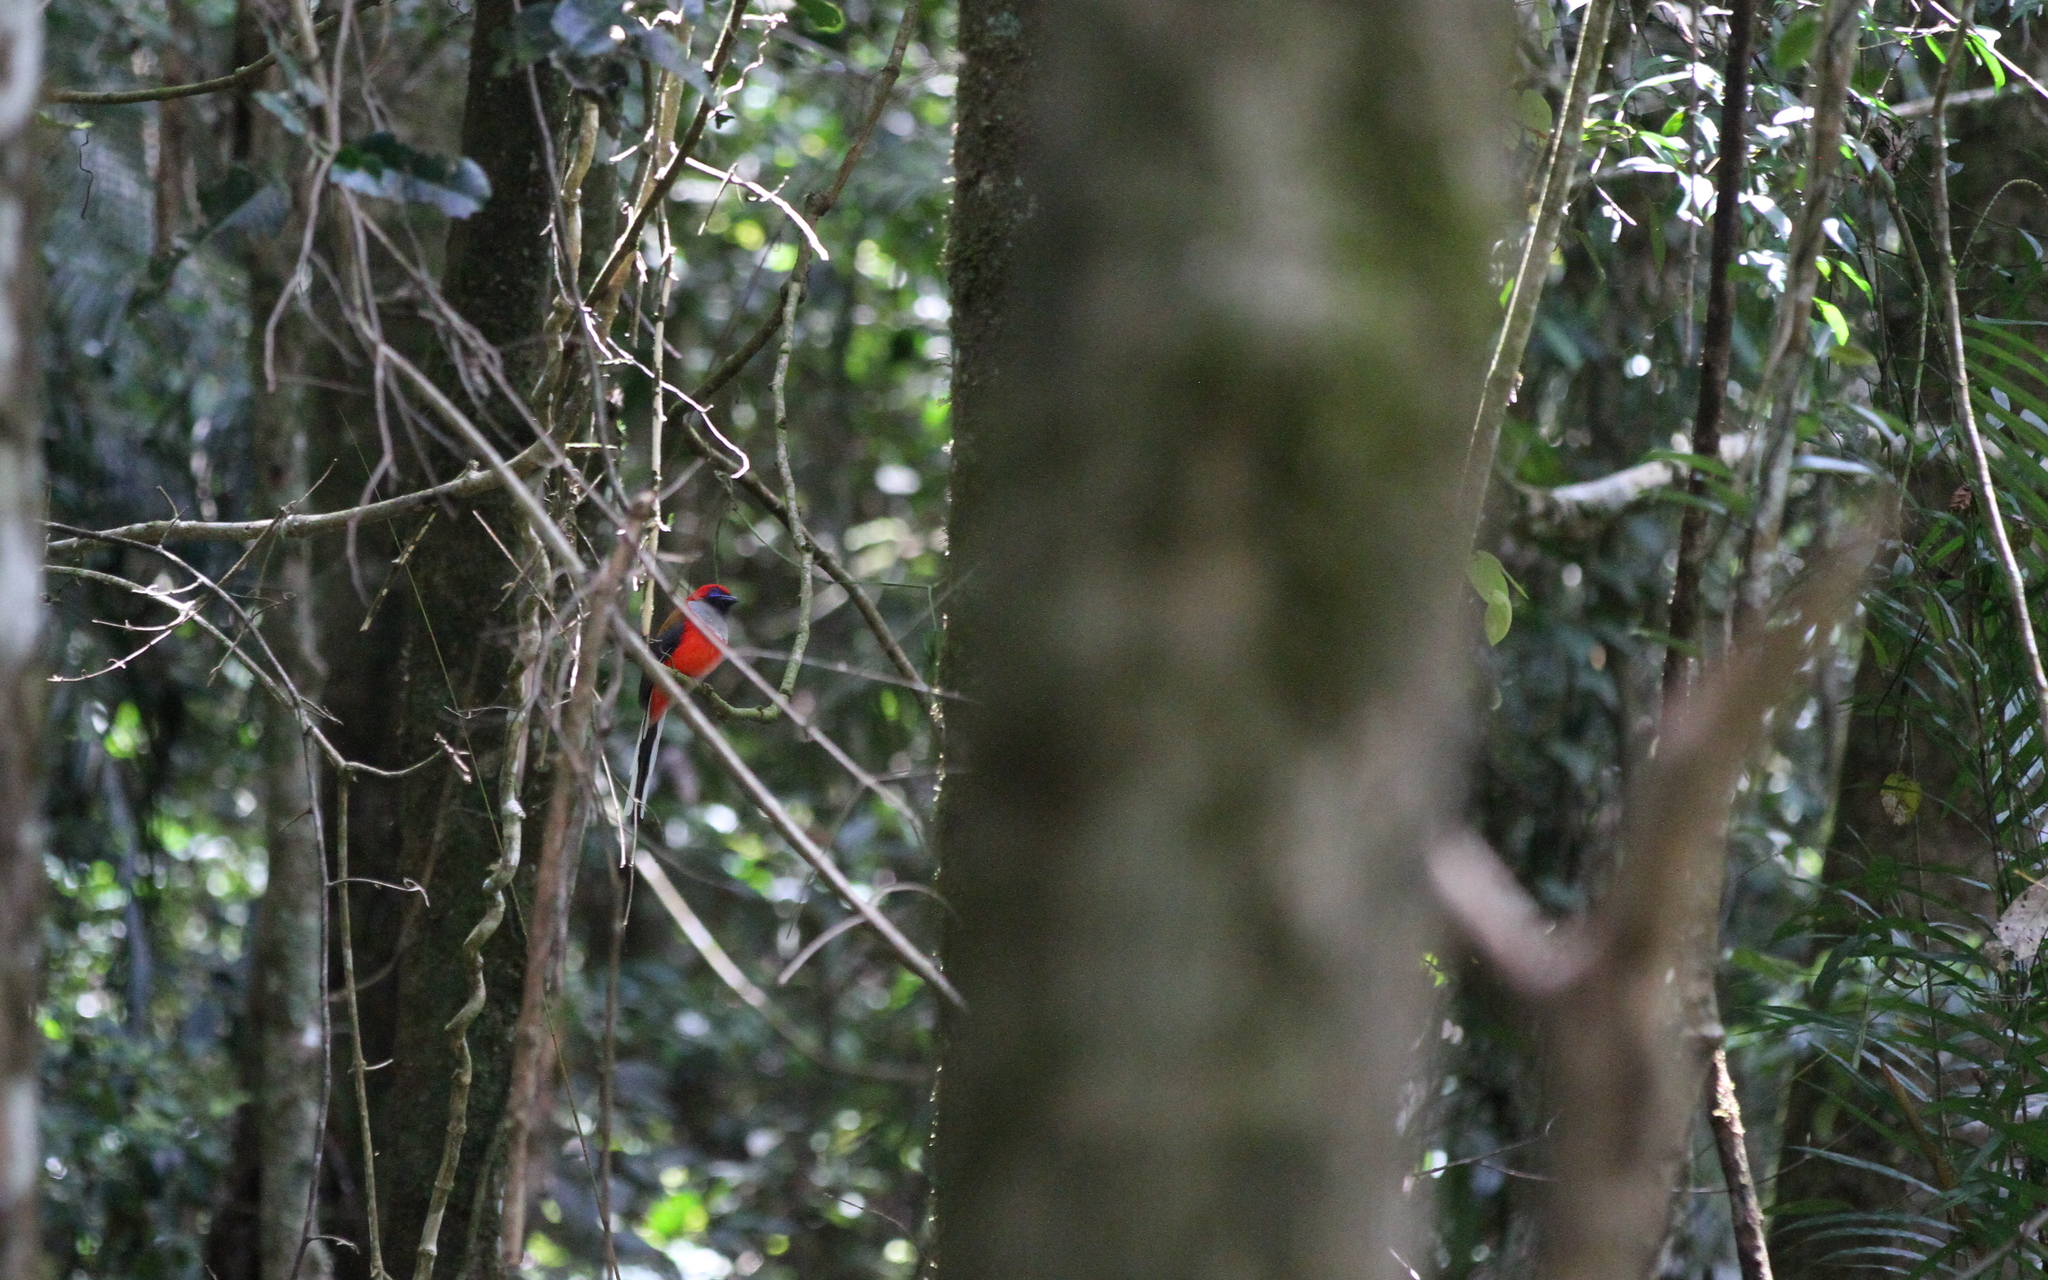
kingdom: Animalia
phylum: Chordata
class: Aves
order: Trogoniformes
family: Trogonidae
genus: Harpactes
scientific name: Harpactes whiteheadi
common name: Whitehead's trogon
